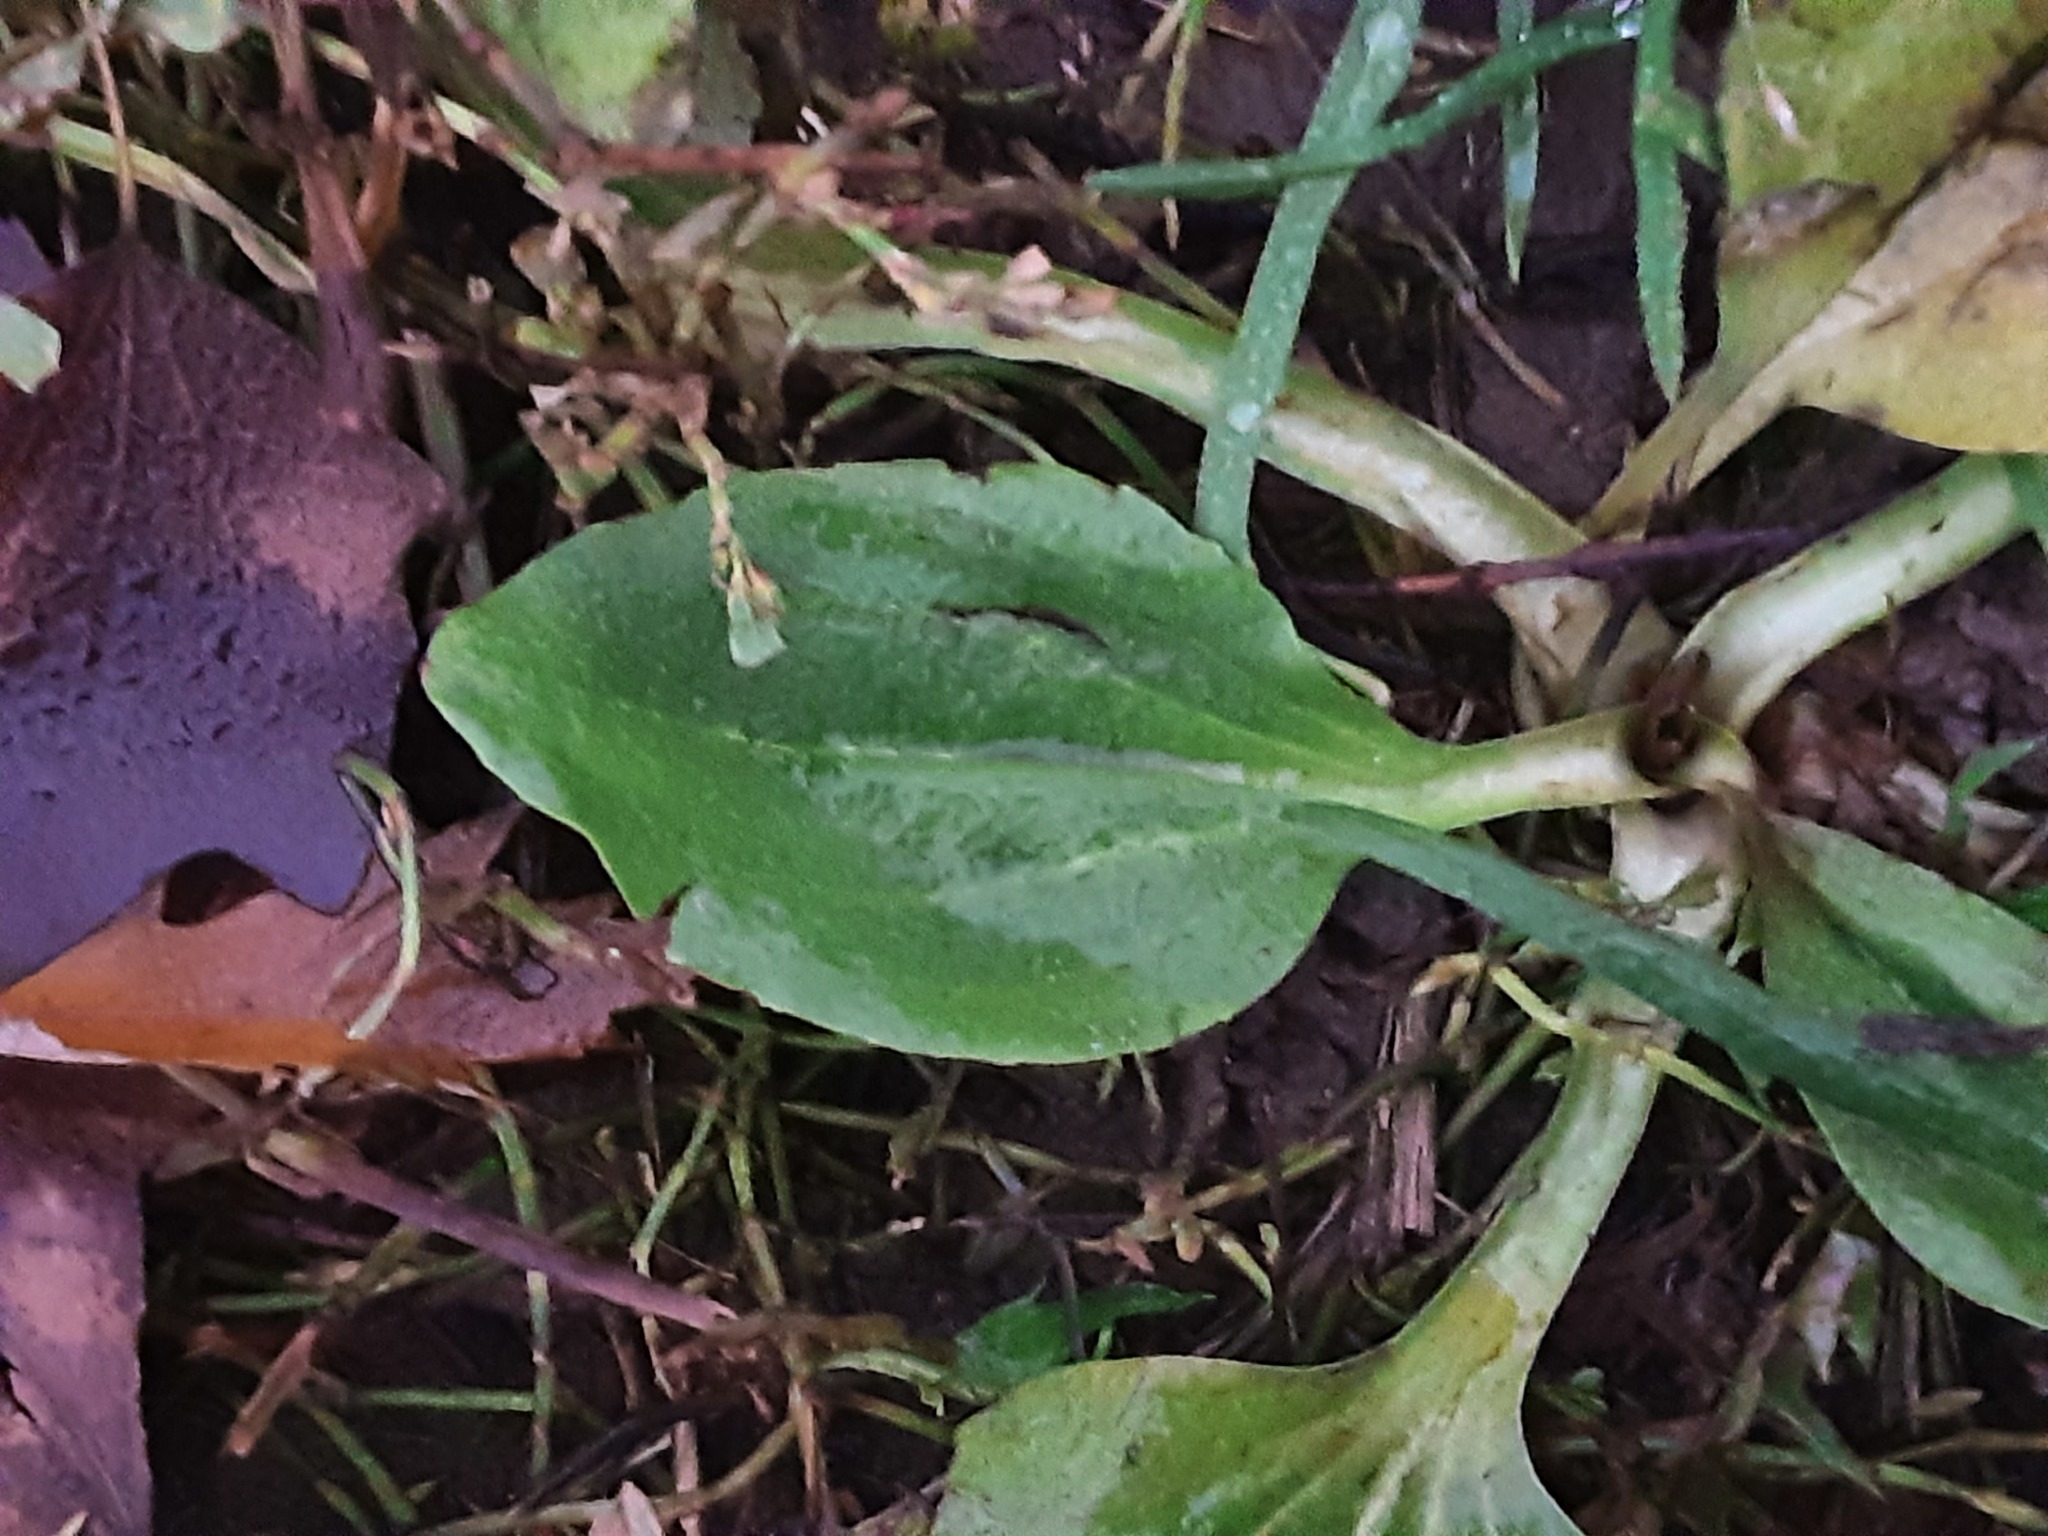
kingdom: Plantae
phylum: Tracheophyta
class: Magnoliopsida
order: Lamiales
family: Plantaginaceae
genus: Plantago
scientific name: Plantago major
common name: Common plantain
